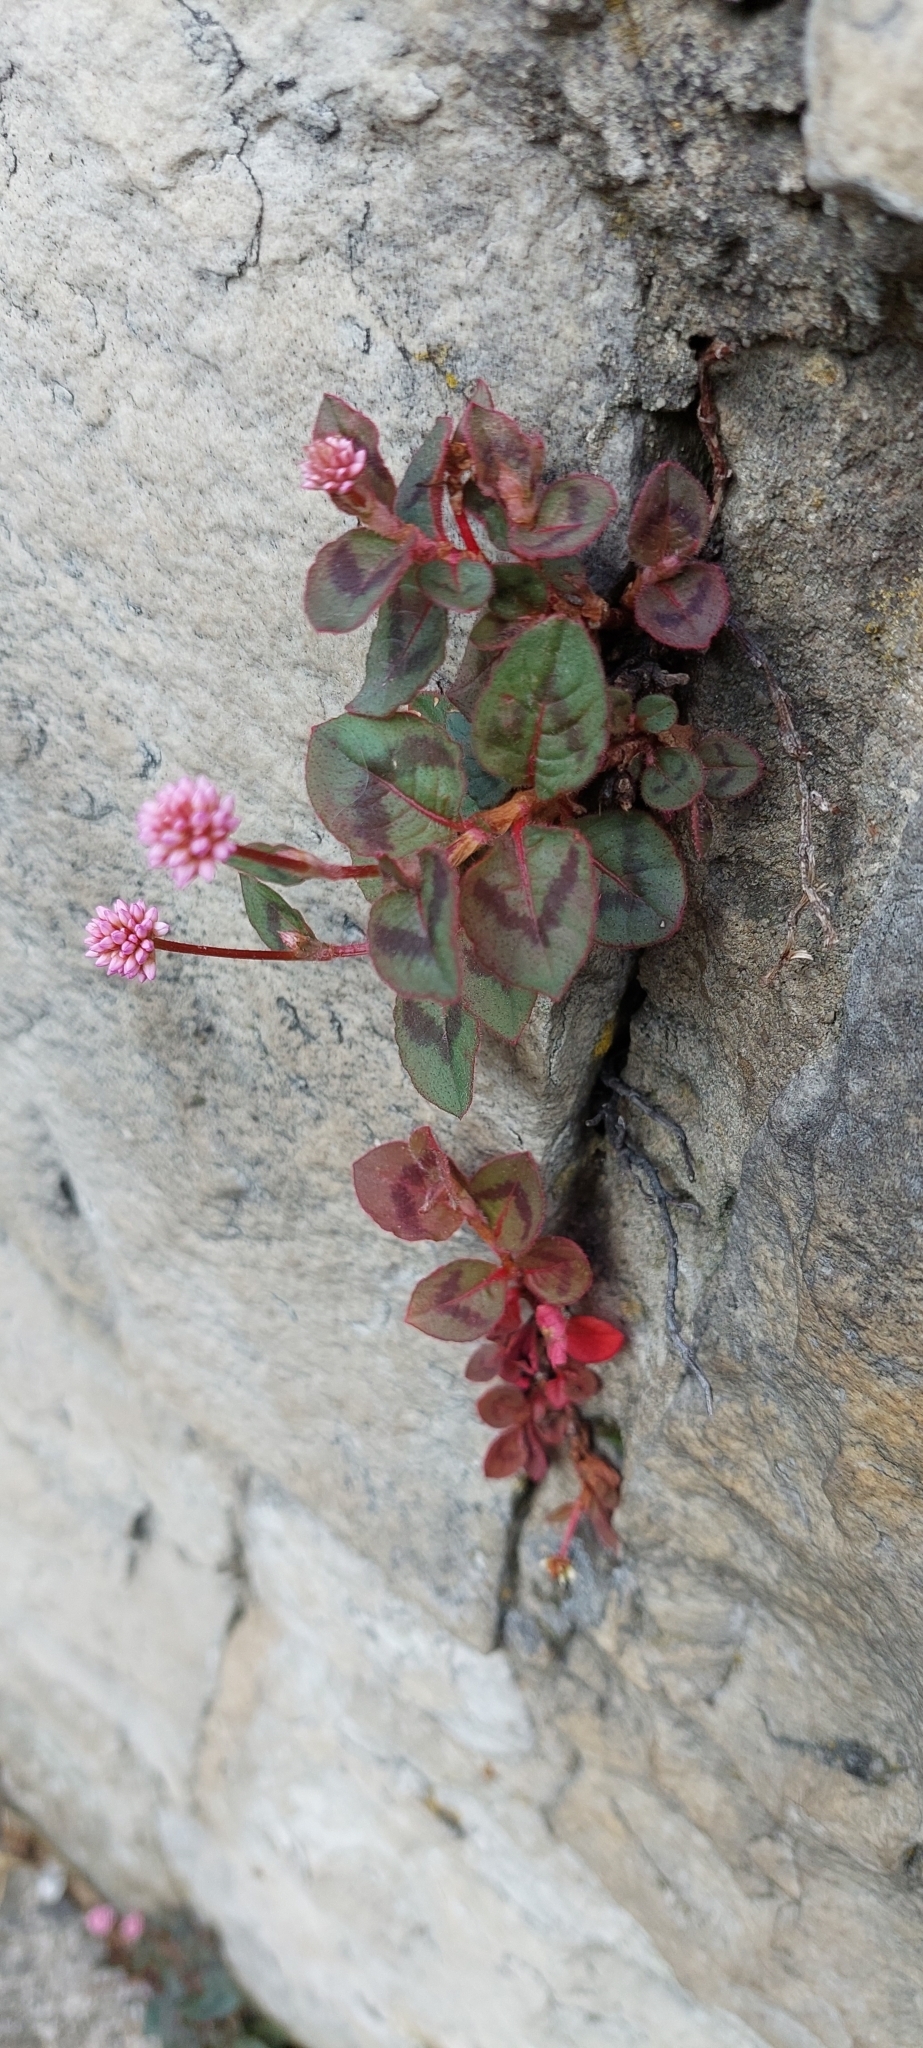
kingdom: Plantae
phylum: Tracheophyta
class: Magnoliopsida
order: Caryophyllales
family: Polygonaceae
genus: Persicaria
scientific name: Persicaria capitata
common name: Pinkhead smartweed
